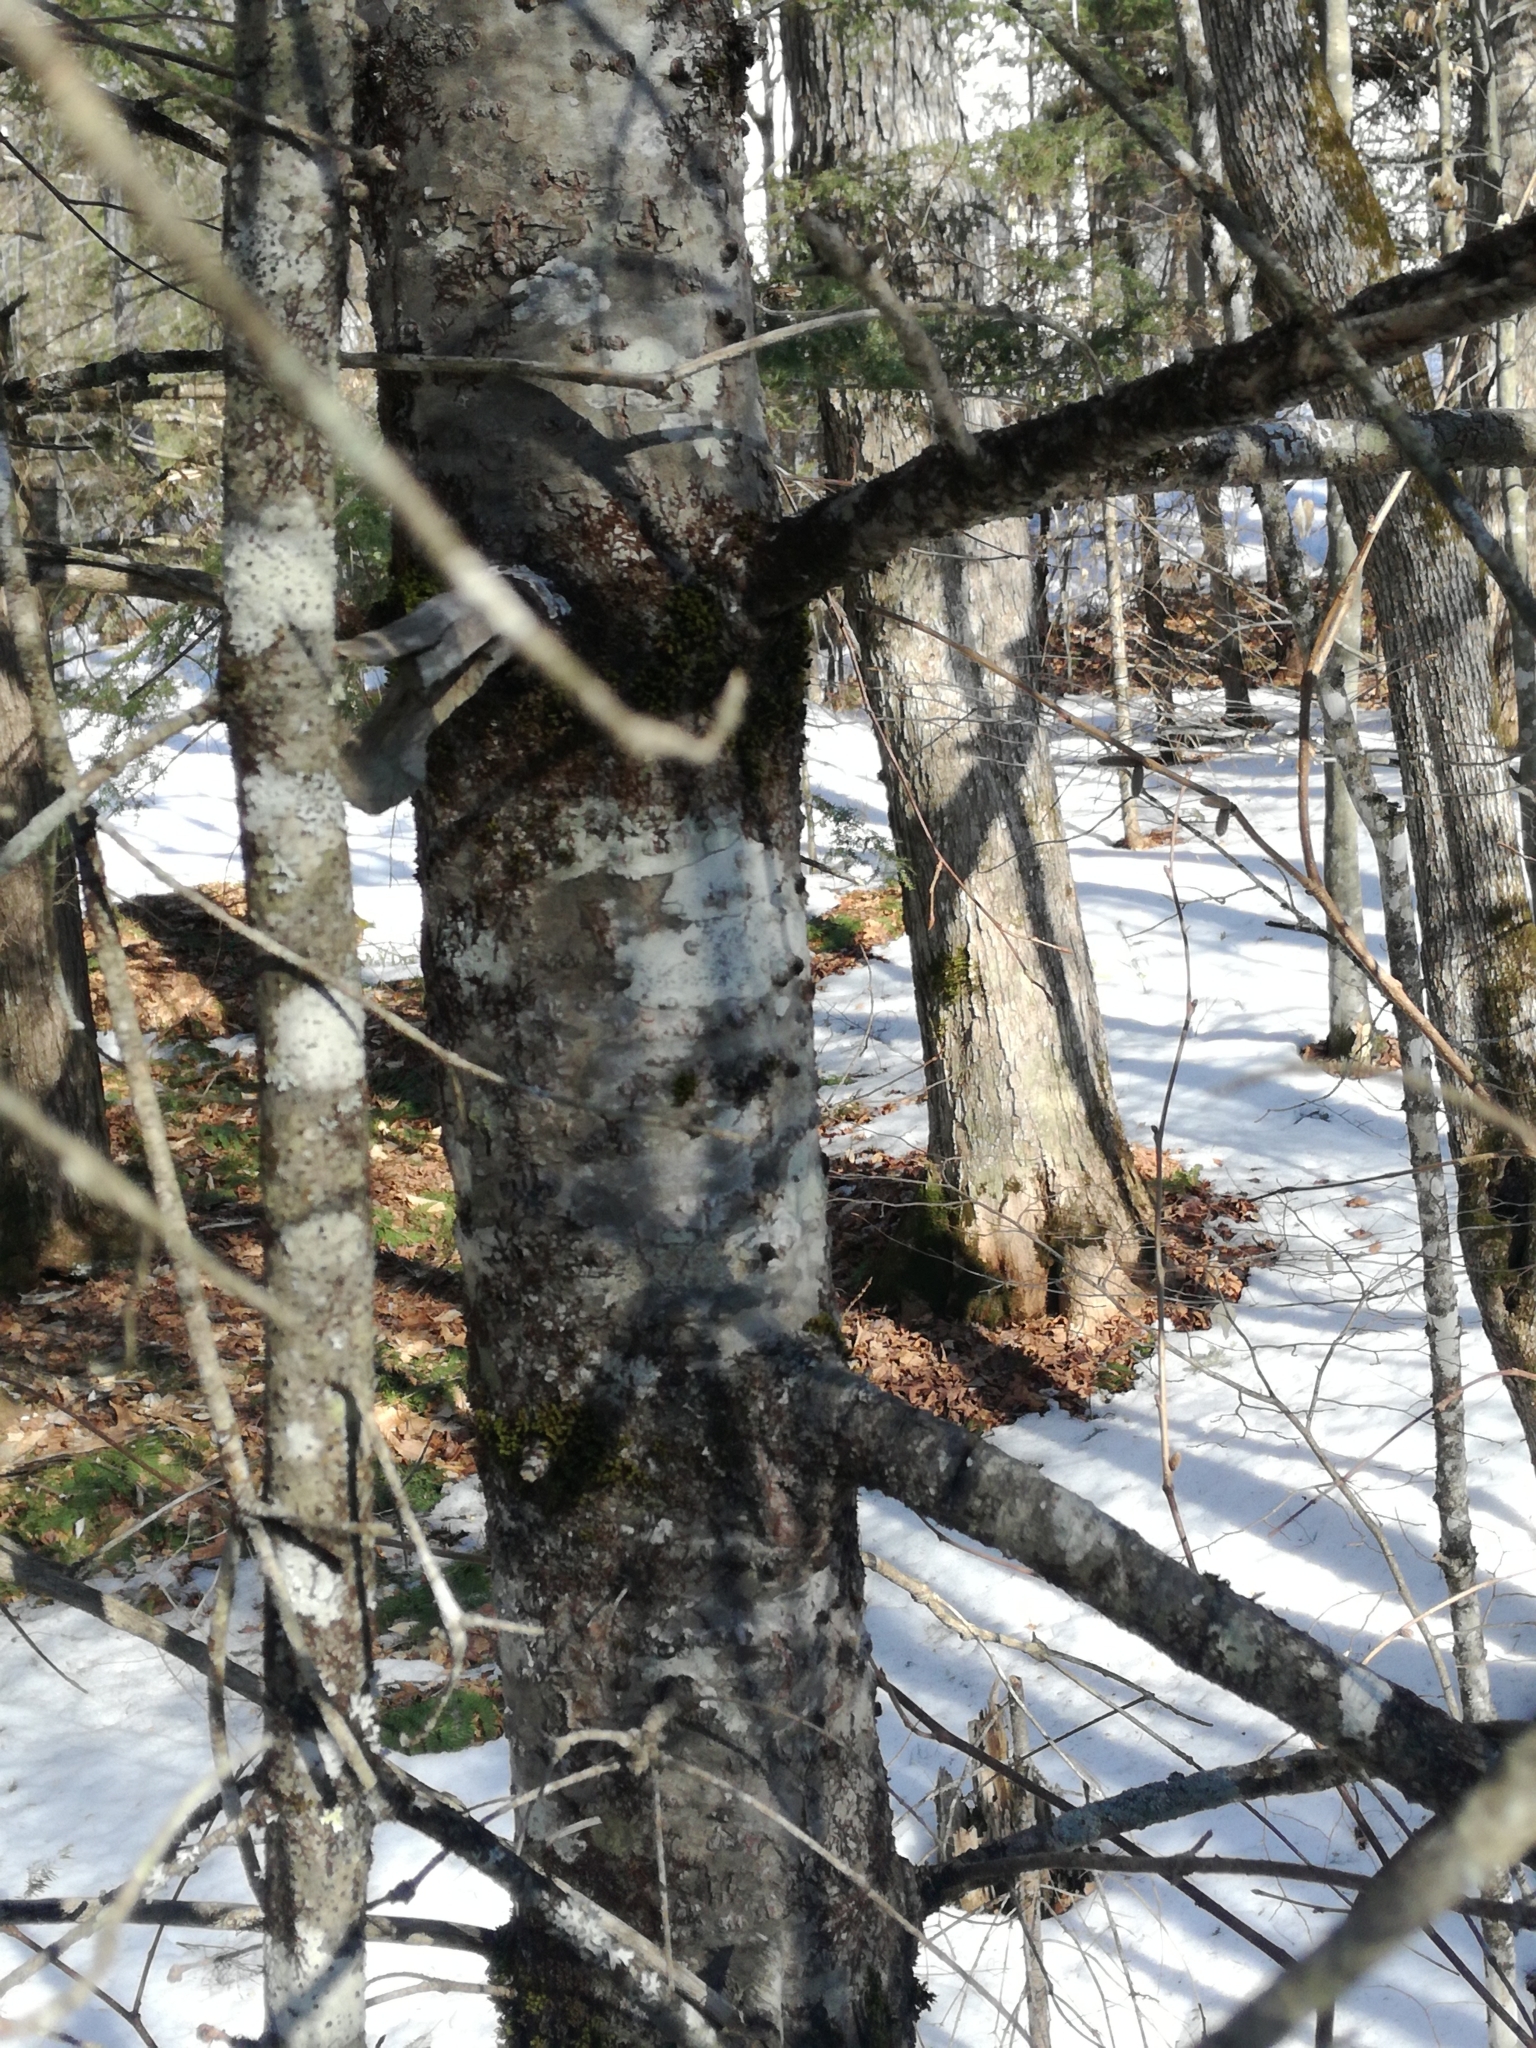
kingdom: Plantae
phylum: Tracheophyta
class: Pinopsida
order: Pinales
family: Pinaceae
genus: Abies
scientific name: Abies balsamea
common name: Balsam fir
